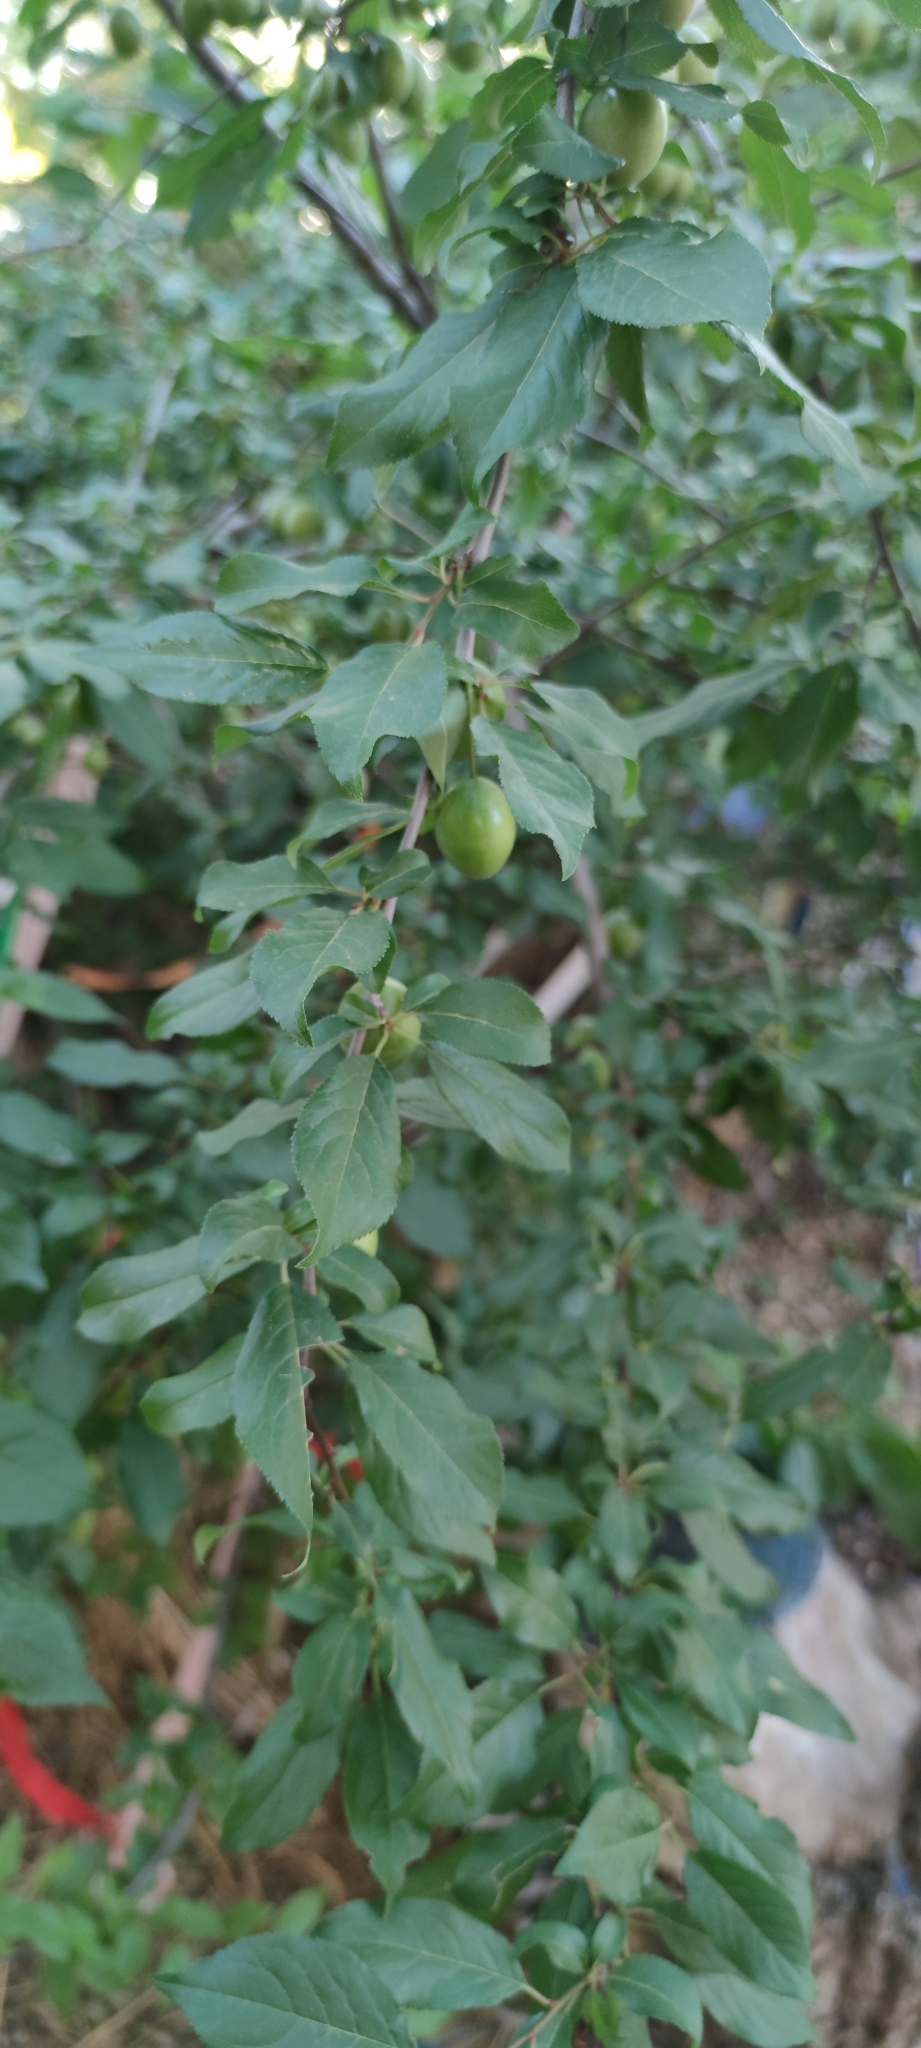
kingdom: Plantae
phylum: Tracheophyta
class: Magnoliopsida
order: Rosales
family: Rosaceae
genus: Prunus
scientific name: Prunus cerasifera
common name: Cherry plum
